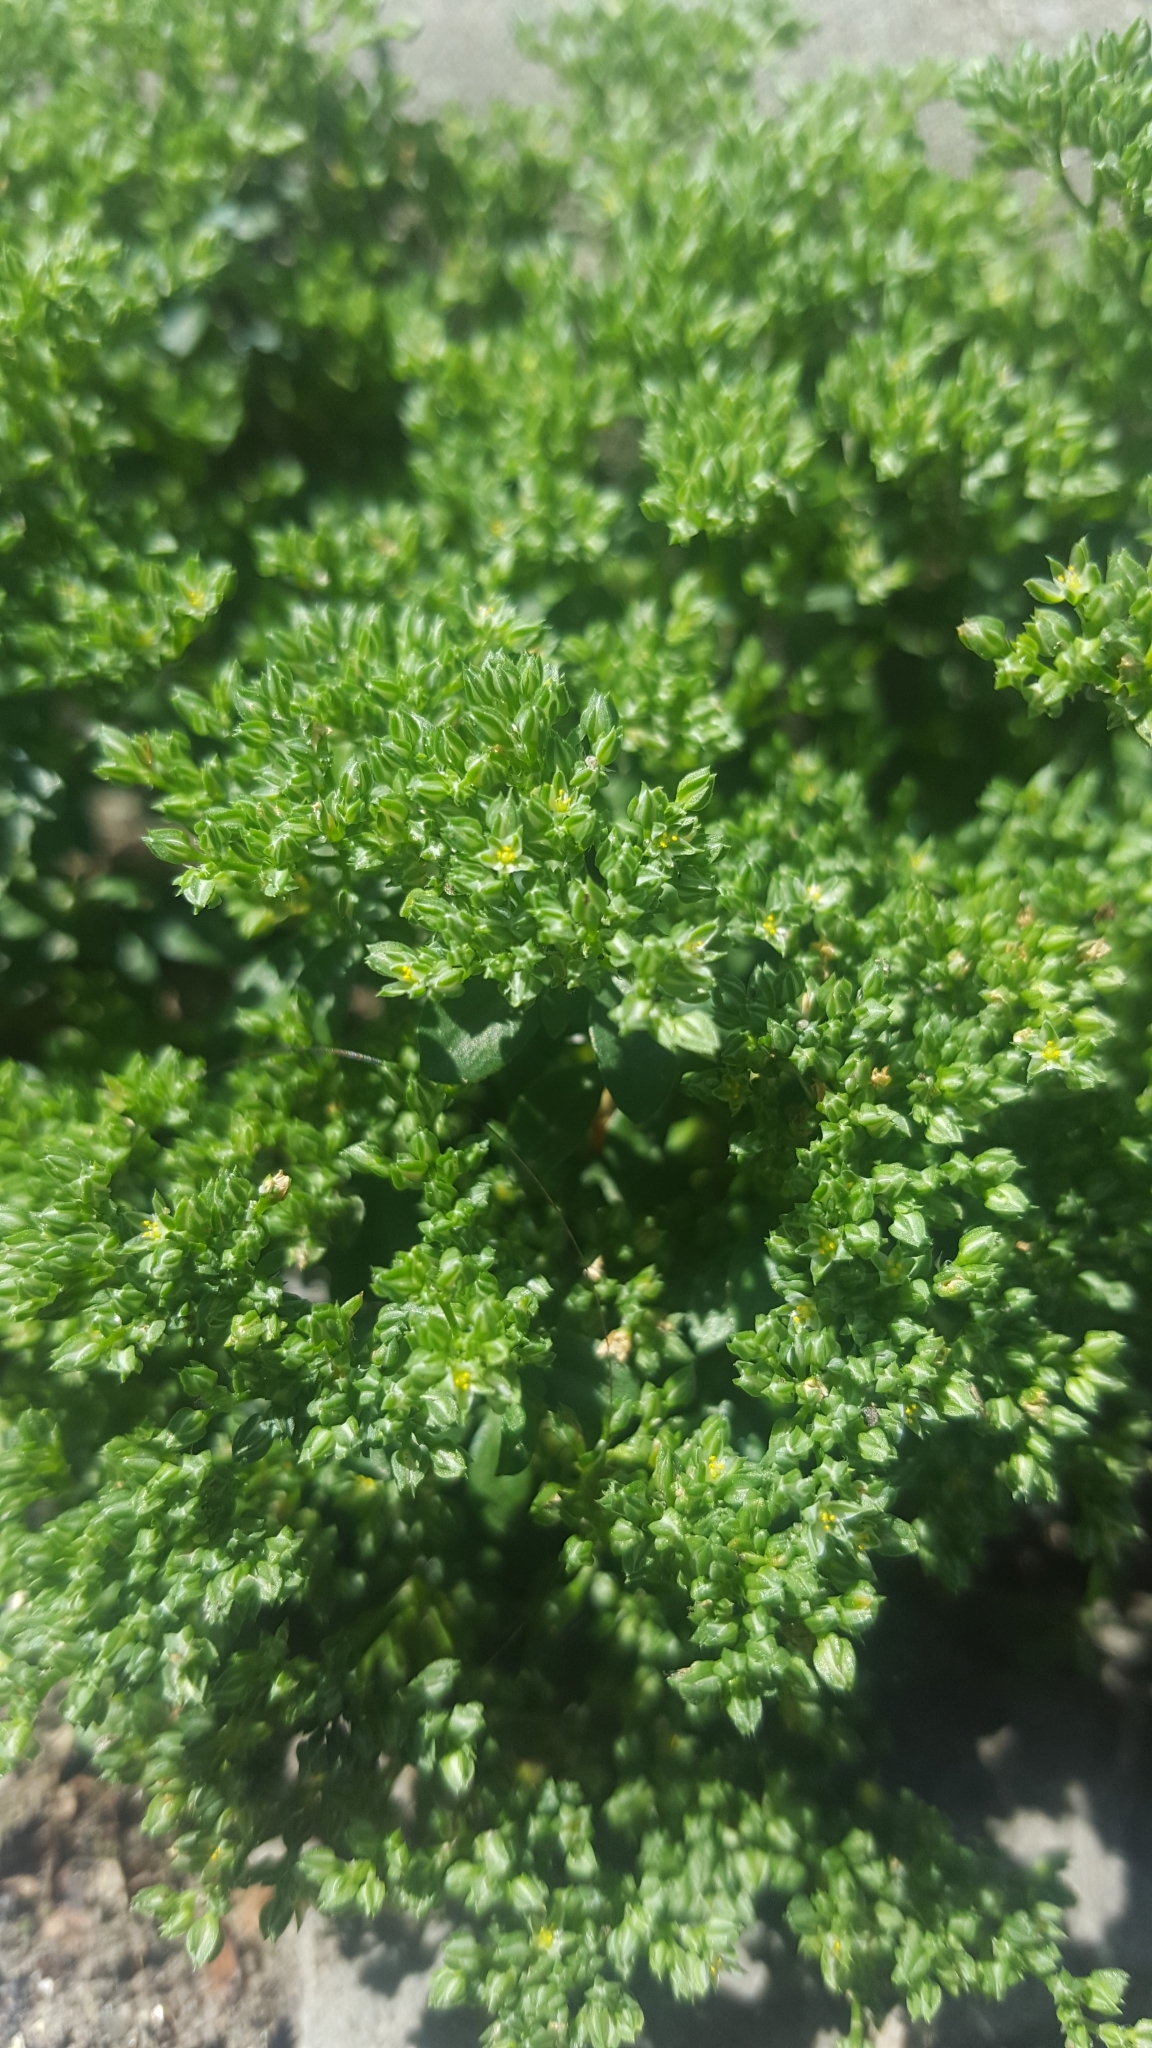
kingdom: Plantae
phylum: Tracheophyta
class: Magnoliopsida
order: Caryophyllales
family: Caryophyllaceae
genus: Polycarpon
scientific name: Polycarpon tetraphyllum
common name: Four-leaved all-seed
